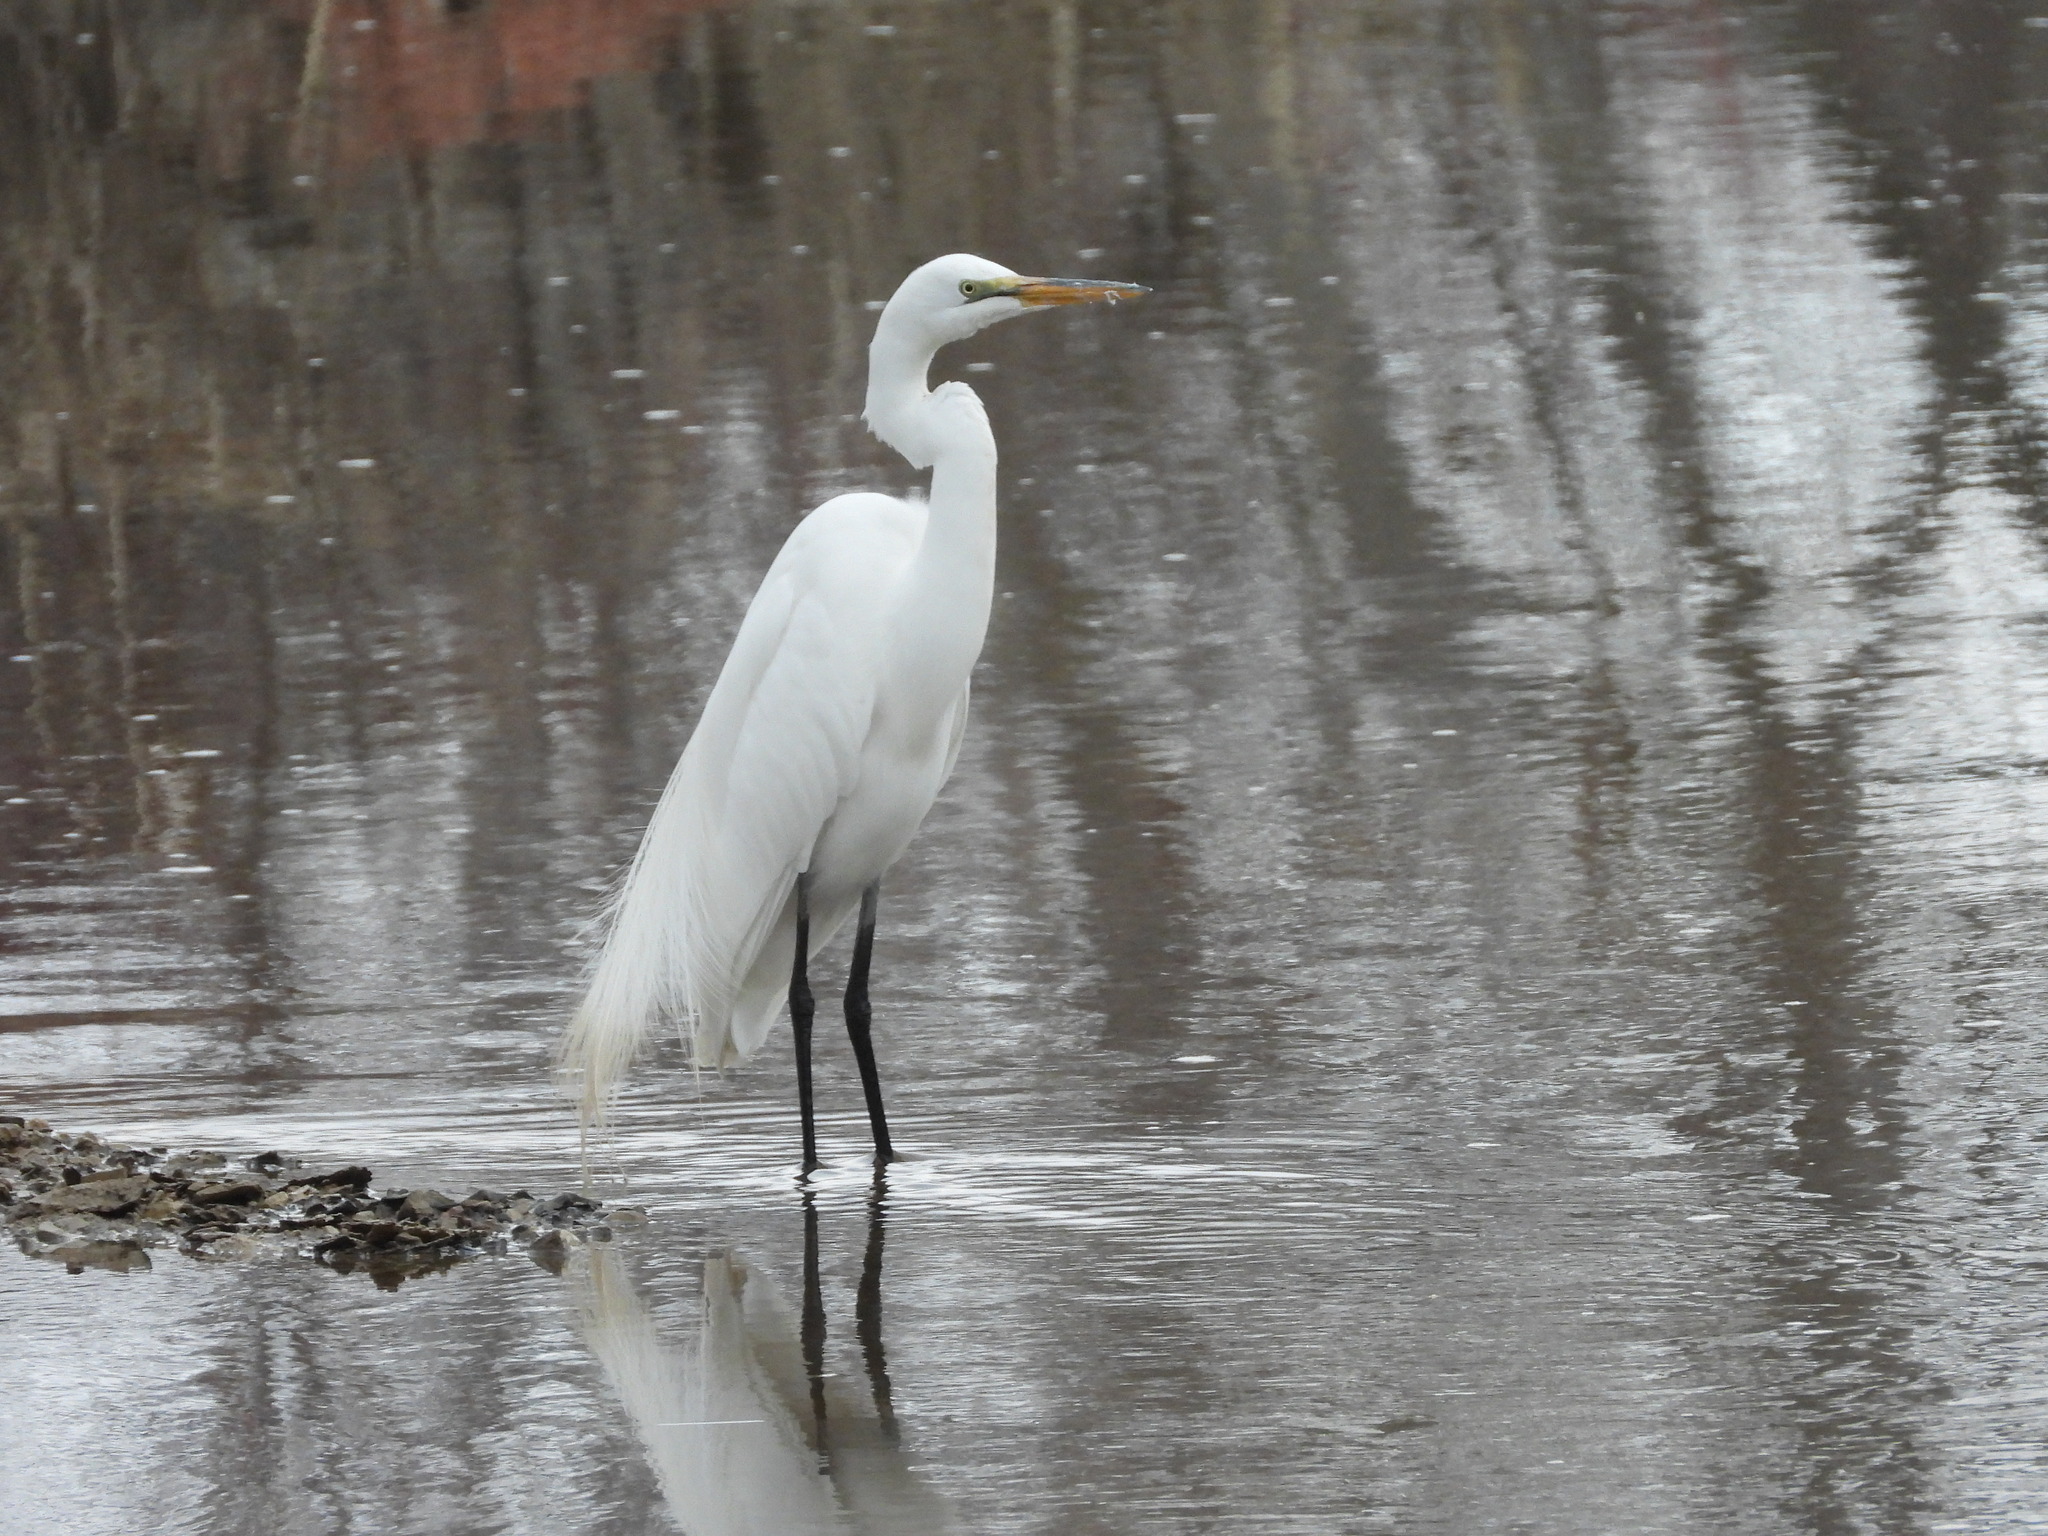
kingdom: Animalia
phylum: Chordata
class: Aves
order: Pelecaniformes
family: Ardeidae
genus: Ardea
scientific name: Ardea alba
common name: Great egret
